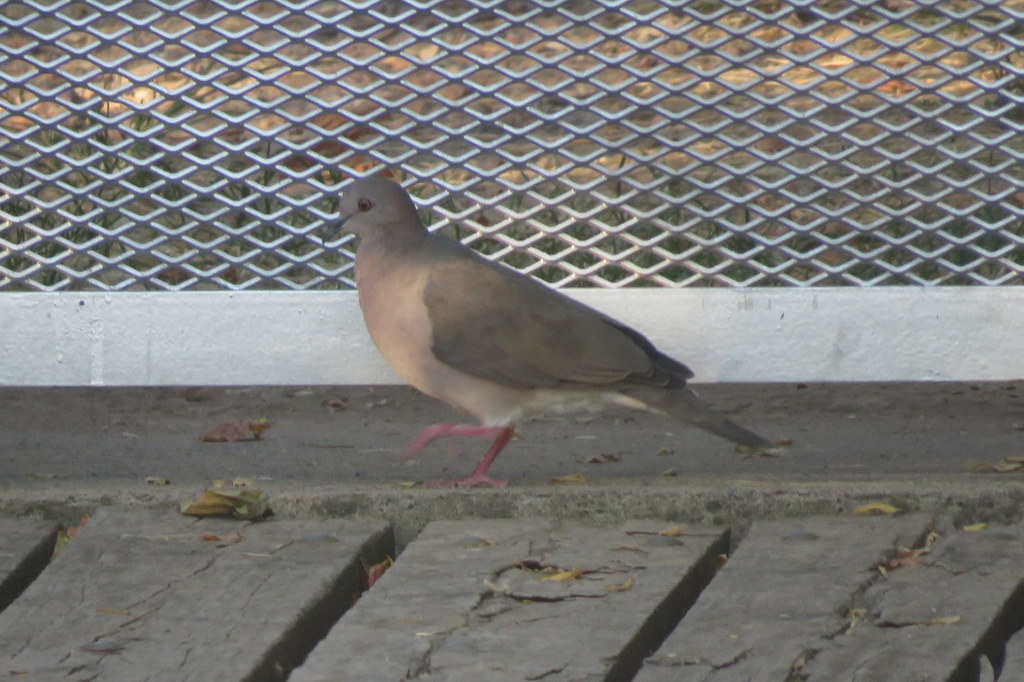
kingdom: Animalia
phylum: Chordata
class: Aves
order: Columbiformes
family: Columbidae
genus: Leptotila
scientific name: Leptotila verreauxi
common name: White-tipped dove
